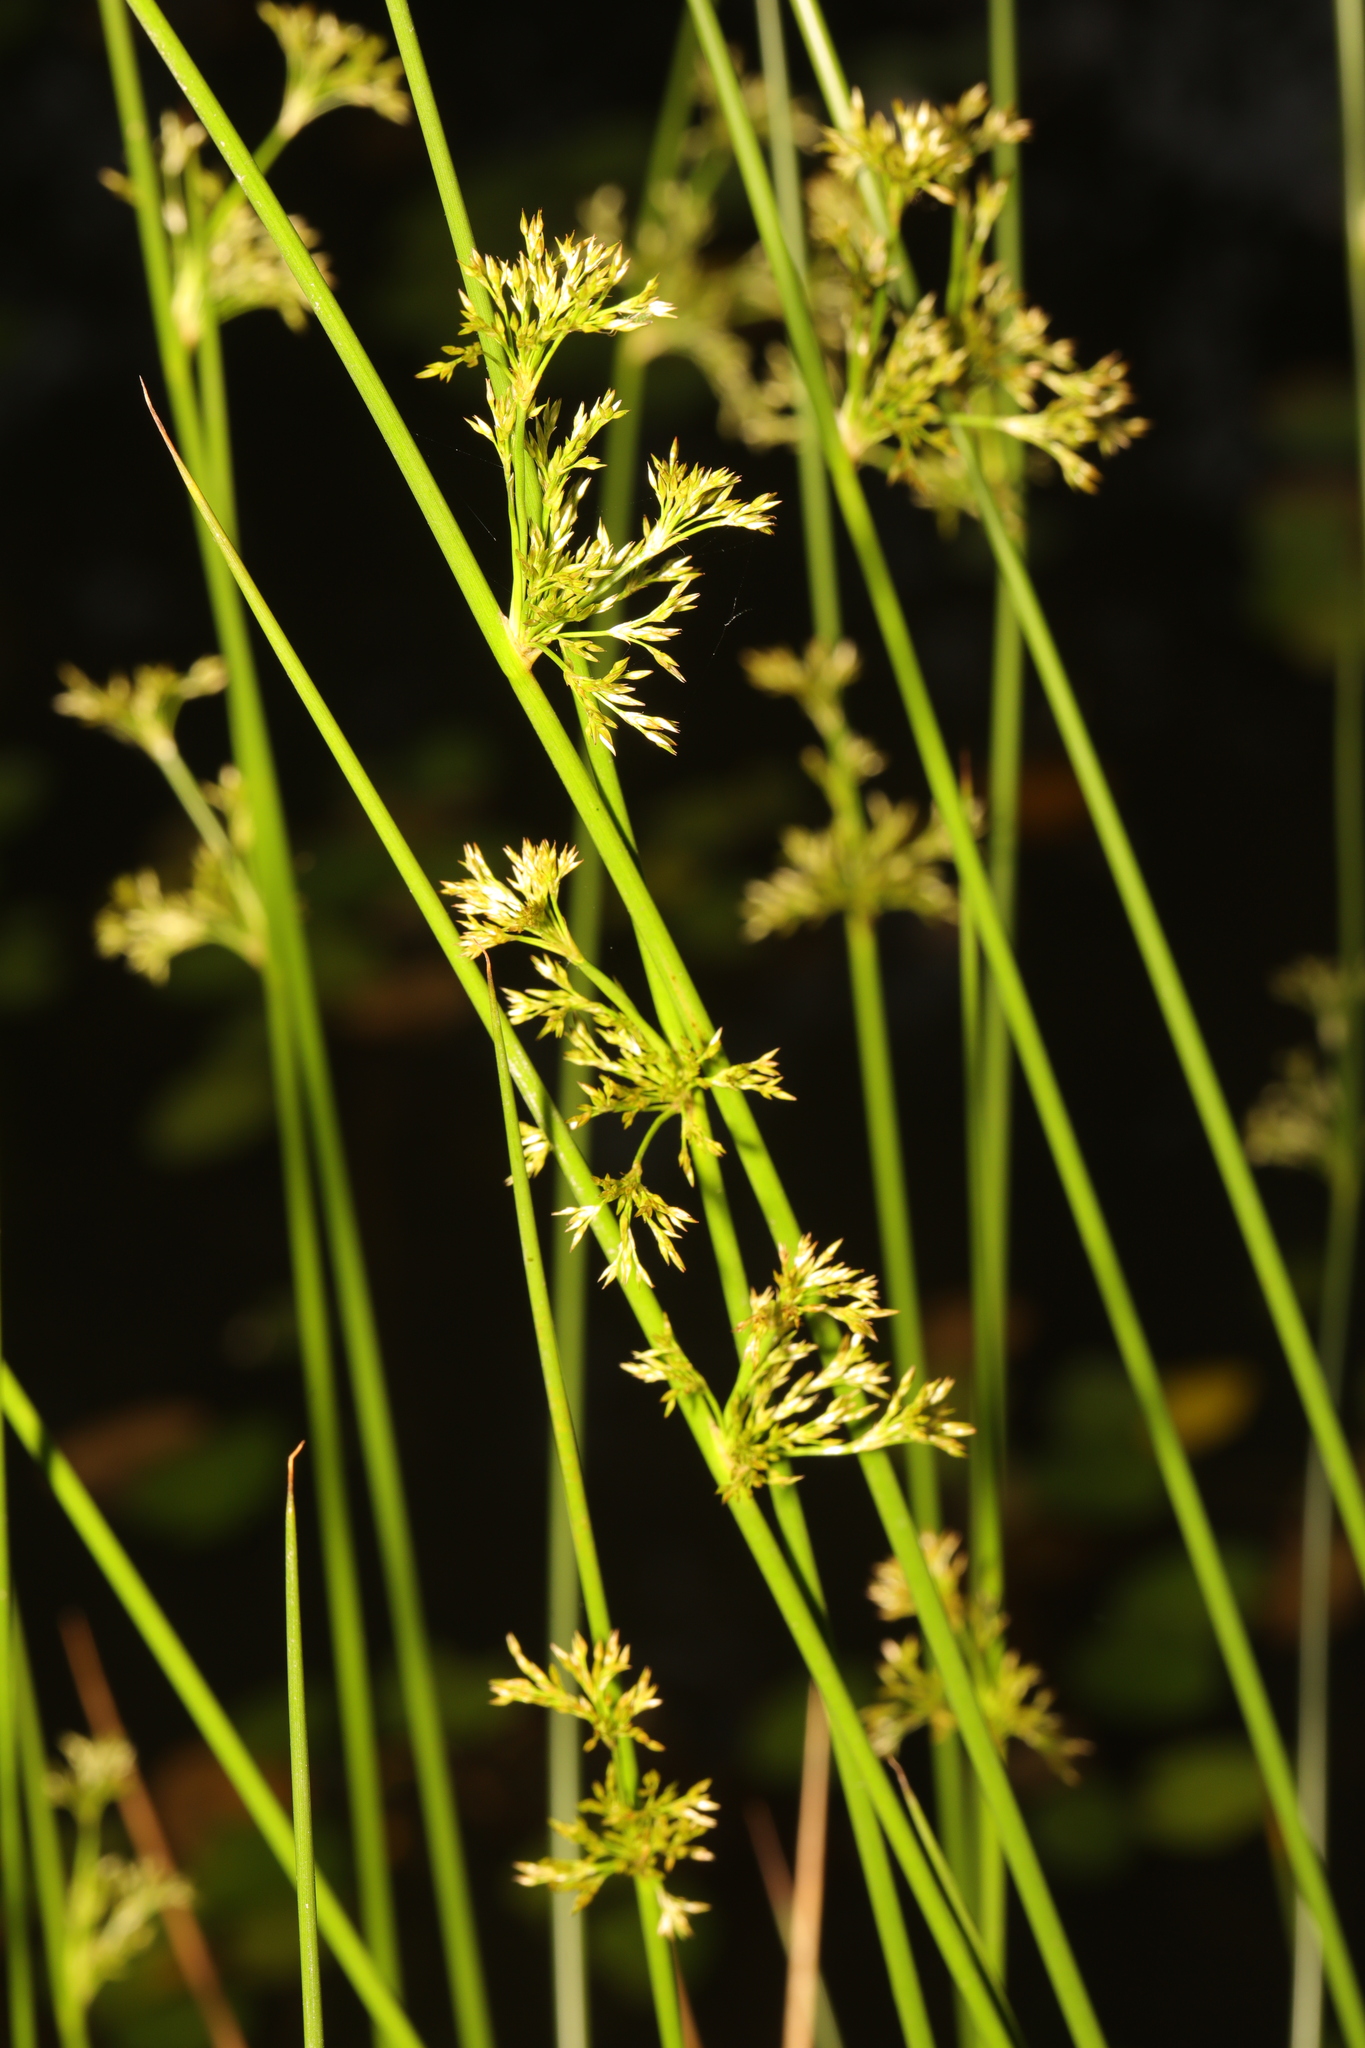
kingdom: Plantae
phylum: Tracheophyta
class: Liliopsida
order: Poales
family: Juncaceae
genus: Juncus
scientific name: Juncus effusus
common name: Soft rush
